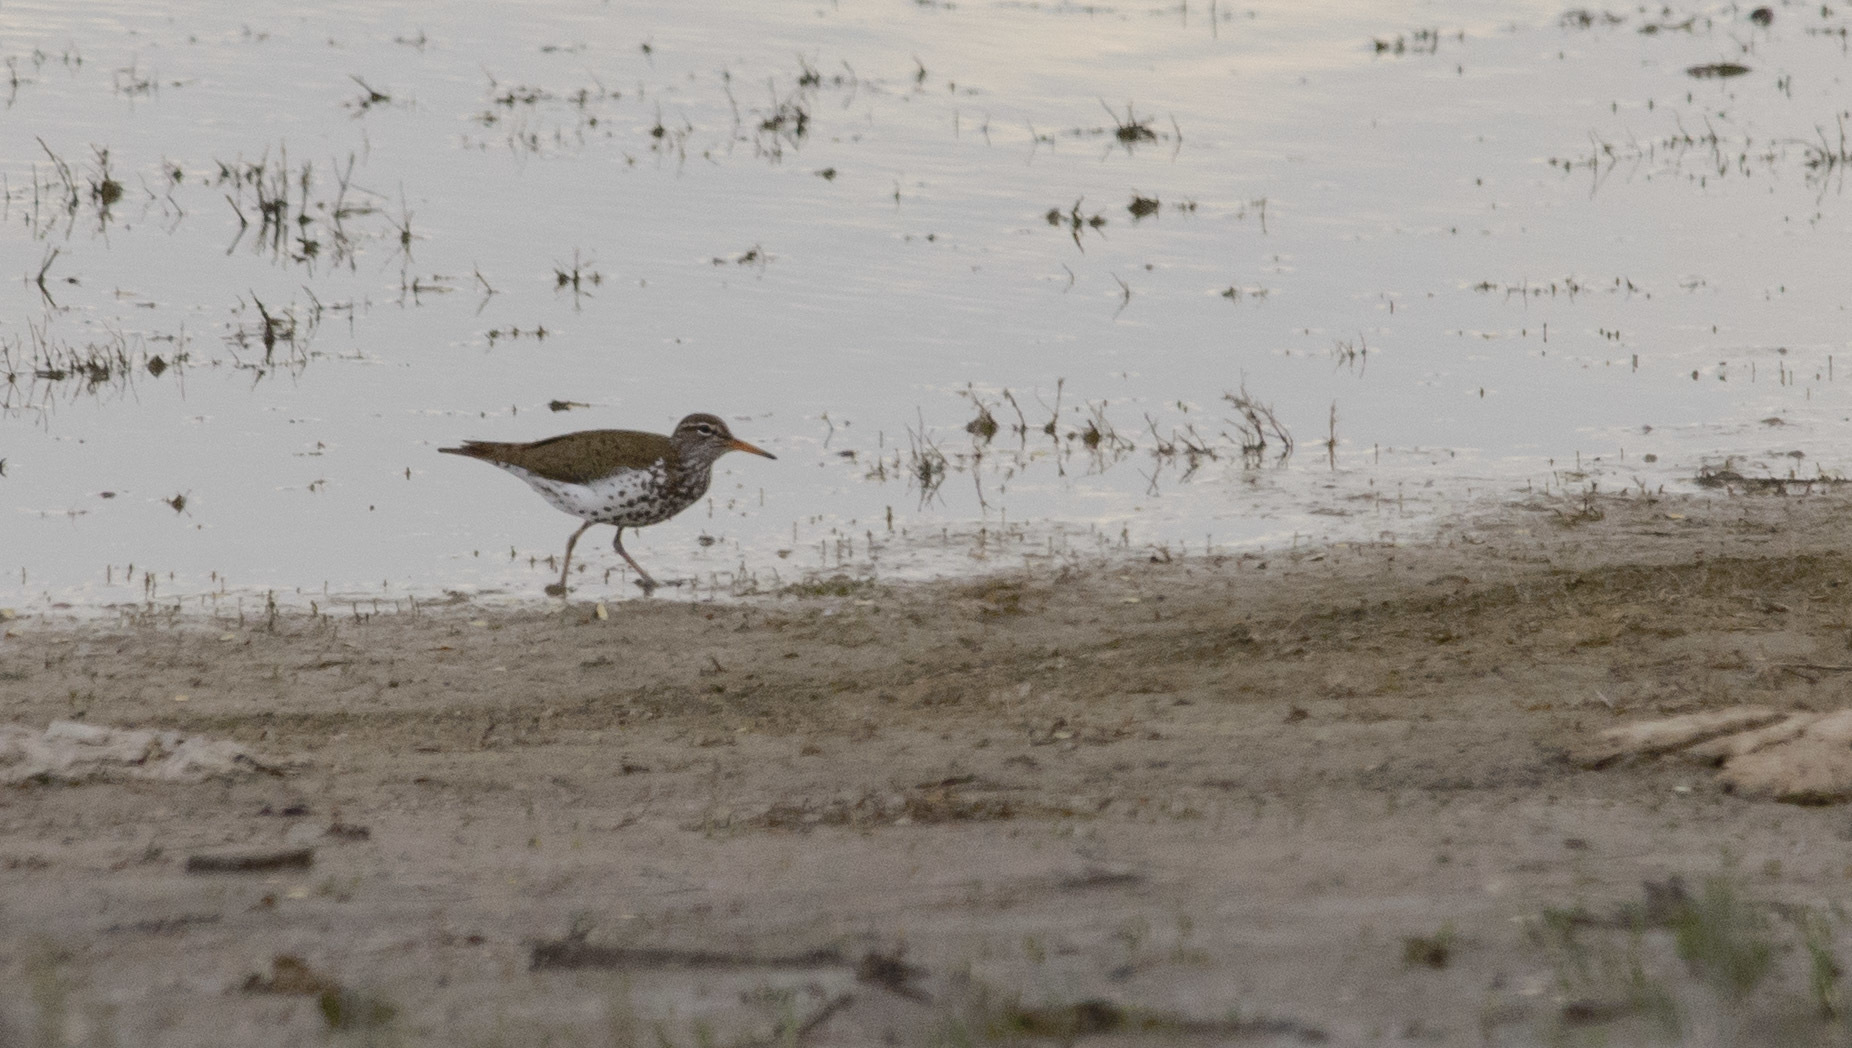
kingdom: Animalia
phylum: Chordata
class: Aves
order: Charadriiformes
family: Scolopacidae
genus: Actitis
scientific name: Actitis macularius
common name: Spotted sandpiper
